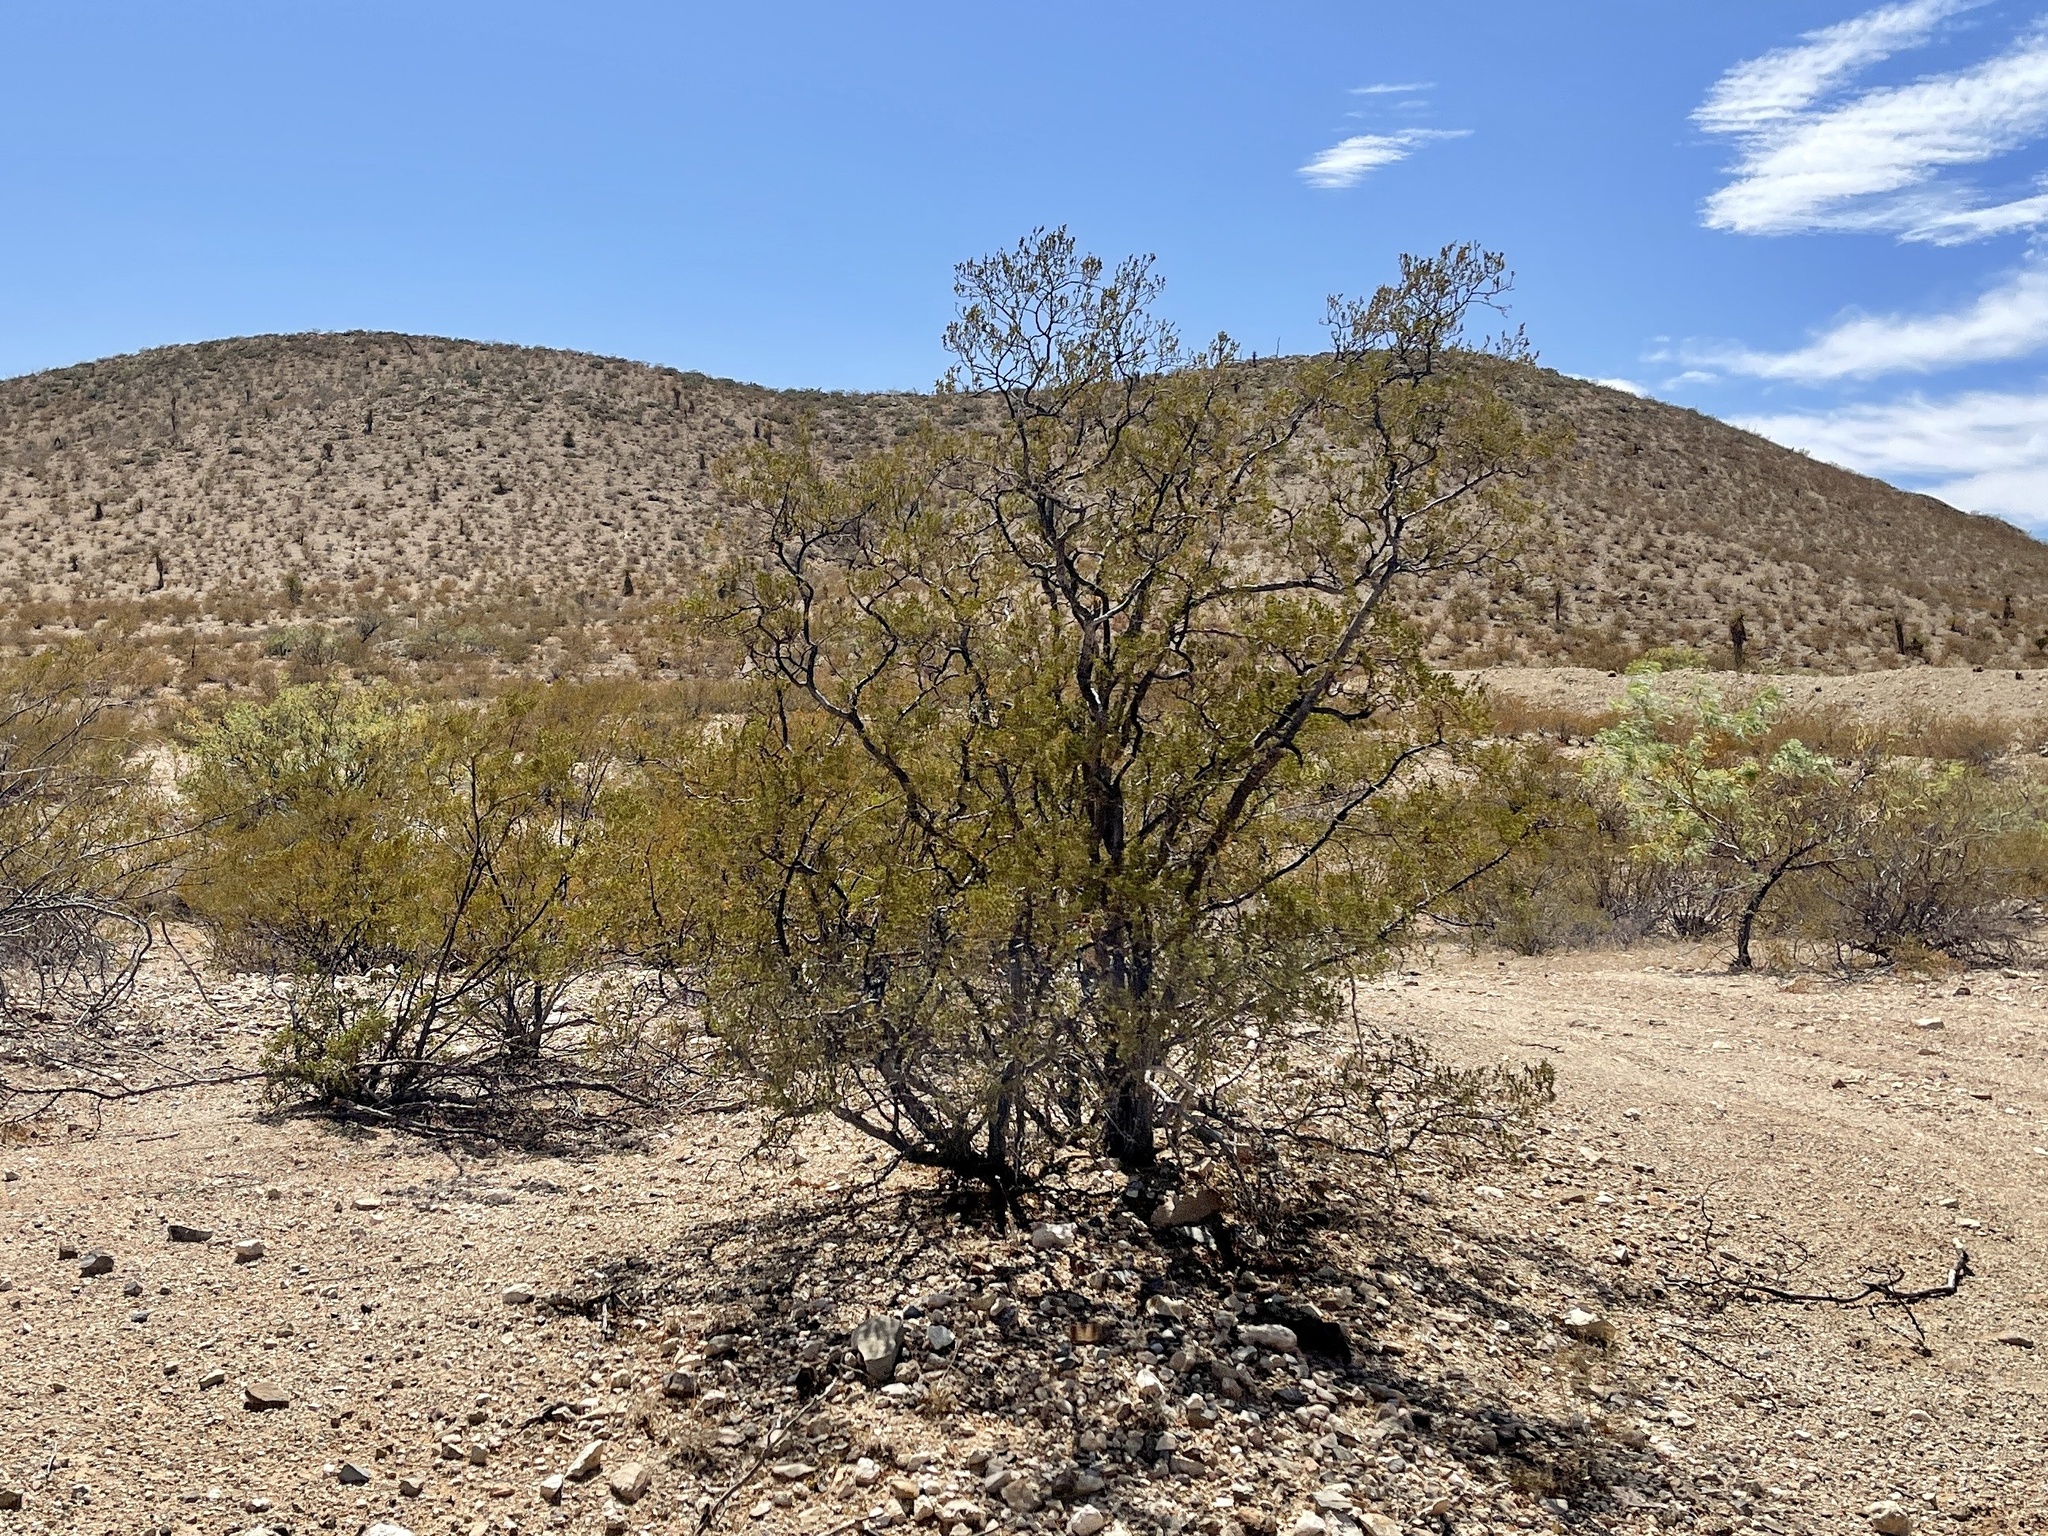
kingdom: Plantae
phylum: Tracheophyta
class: Magnoliopsida
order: Zygophyllales
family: Zygophyllaceae
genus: Larrea
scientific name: Larrea tridentata
